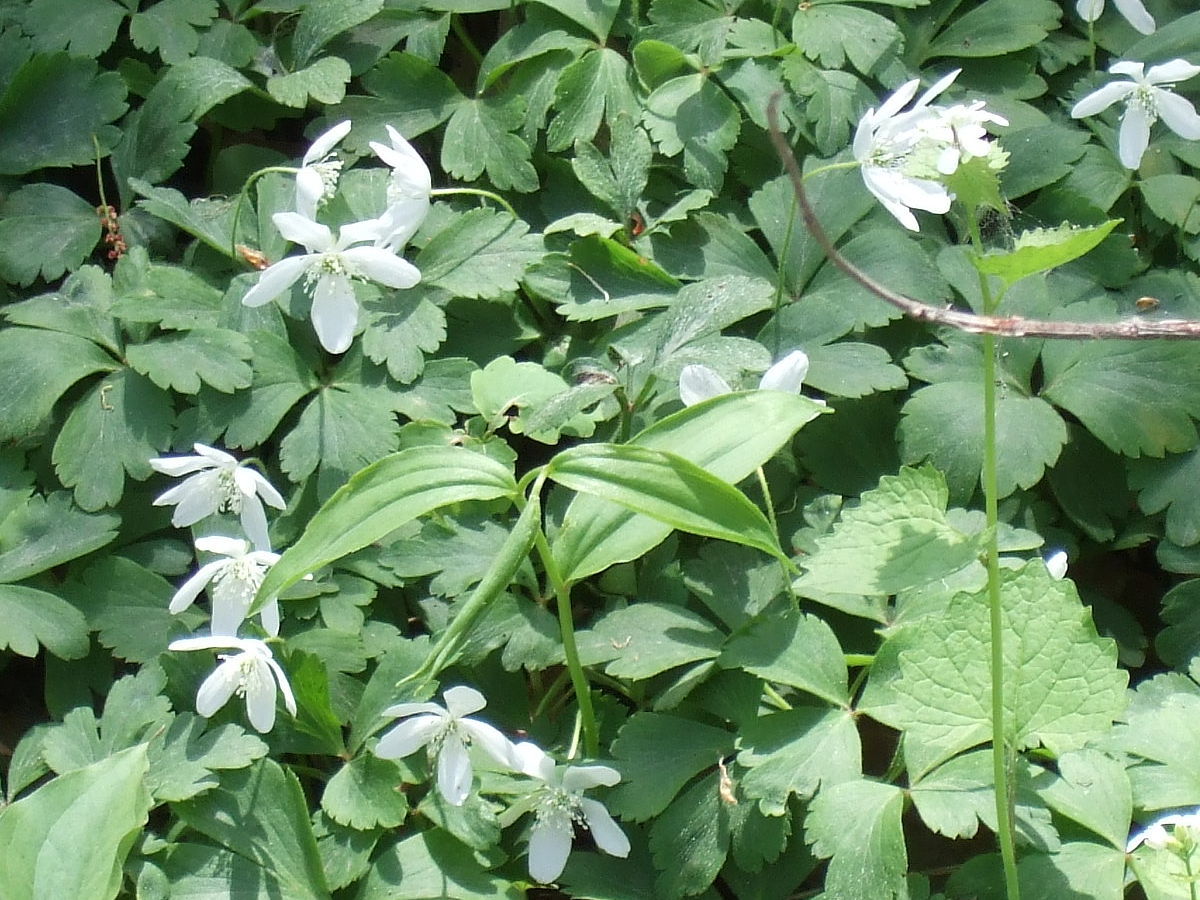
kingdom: Plantae
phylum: Tracheophyta
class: Magnoliopsida
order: Ranunculales
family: Ranunculaceae
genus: Anemone
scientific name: Anemone quinquefolia
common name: Wood anemone
